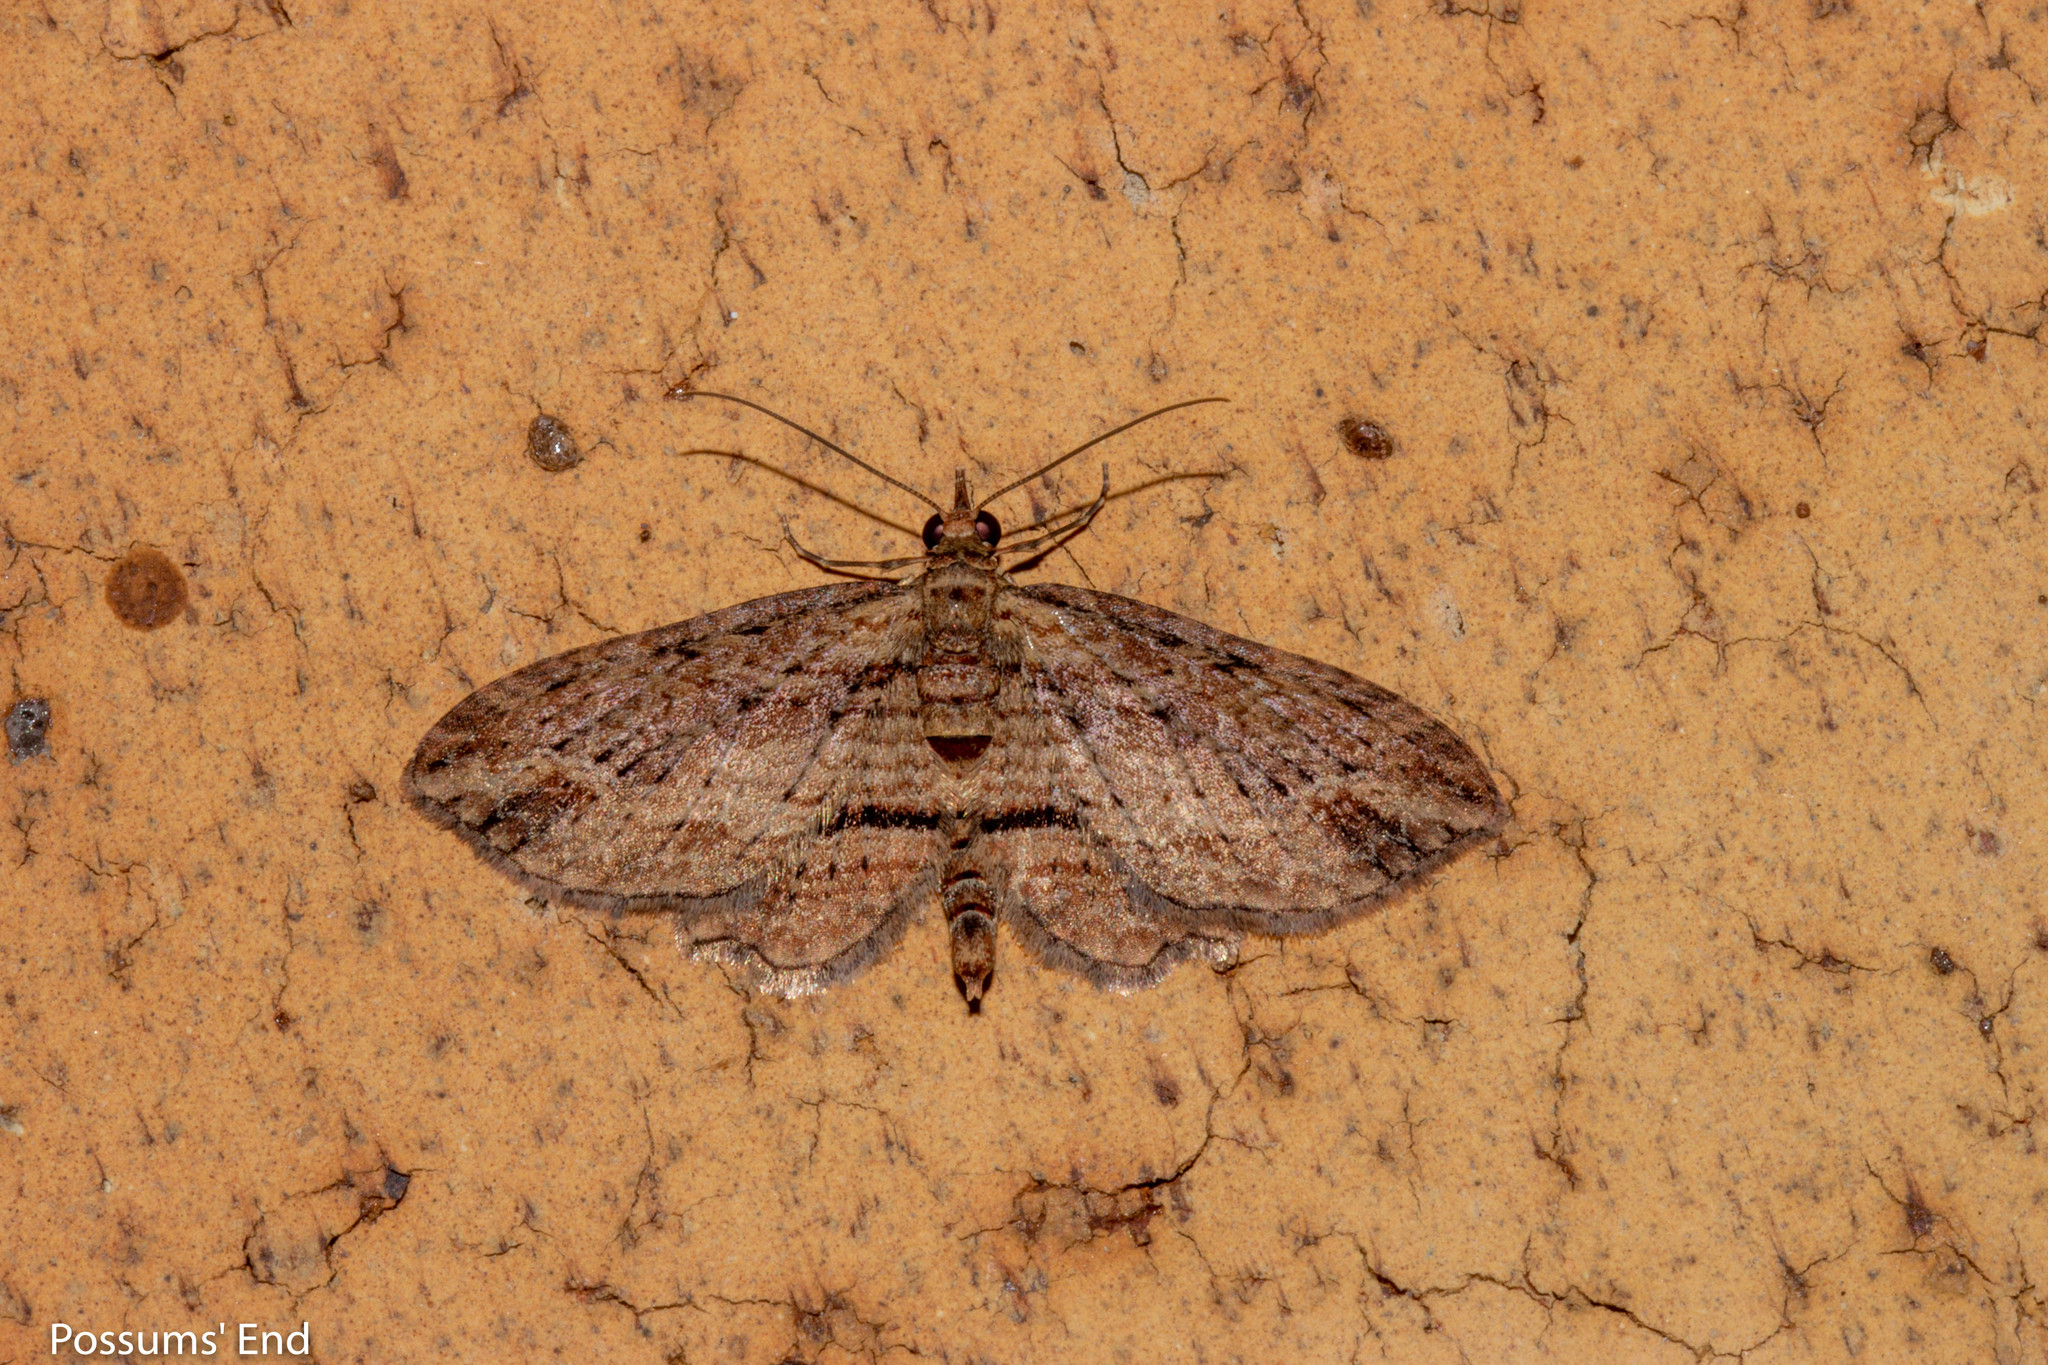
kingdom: Animalia
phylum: Arthropoda
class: Insecta
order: Lepidoptera
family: Geometridae
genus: Chloroclystis
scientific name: Chloroclystis filata
